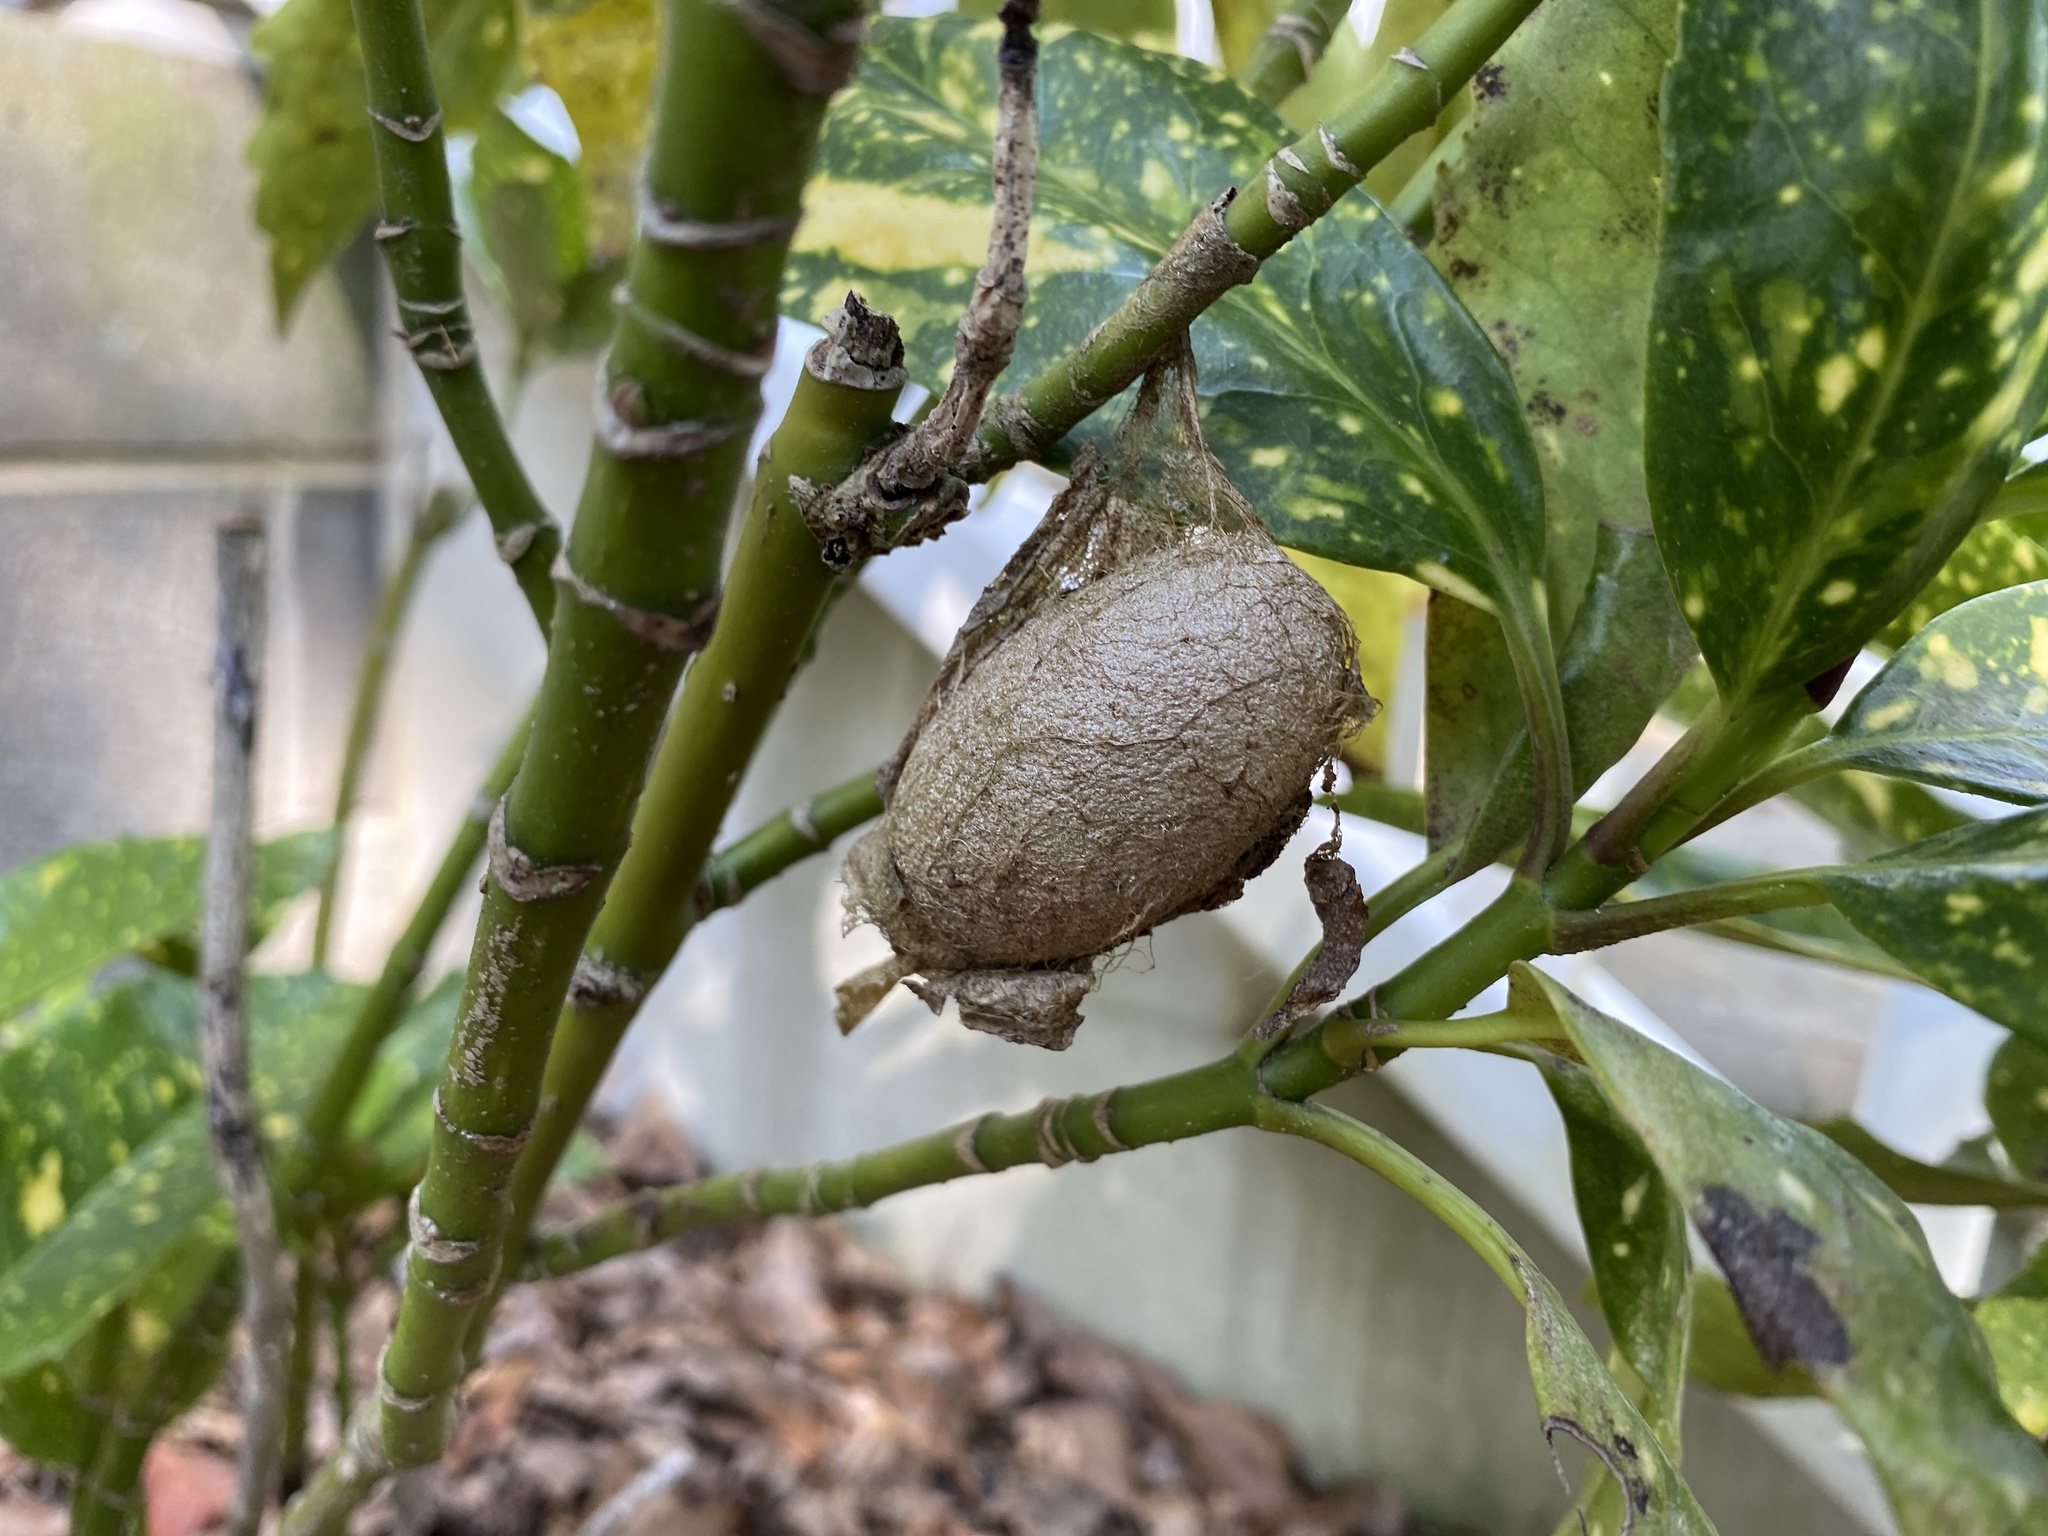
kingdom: Animalia
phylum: Arthropoda
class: Insecta
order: Lepidoptera
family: Saturniidae
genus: Antheraea
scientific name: Antheraea polyphemus
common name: Polyphemus moth
